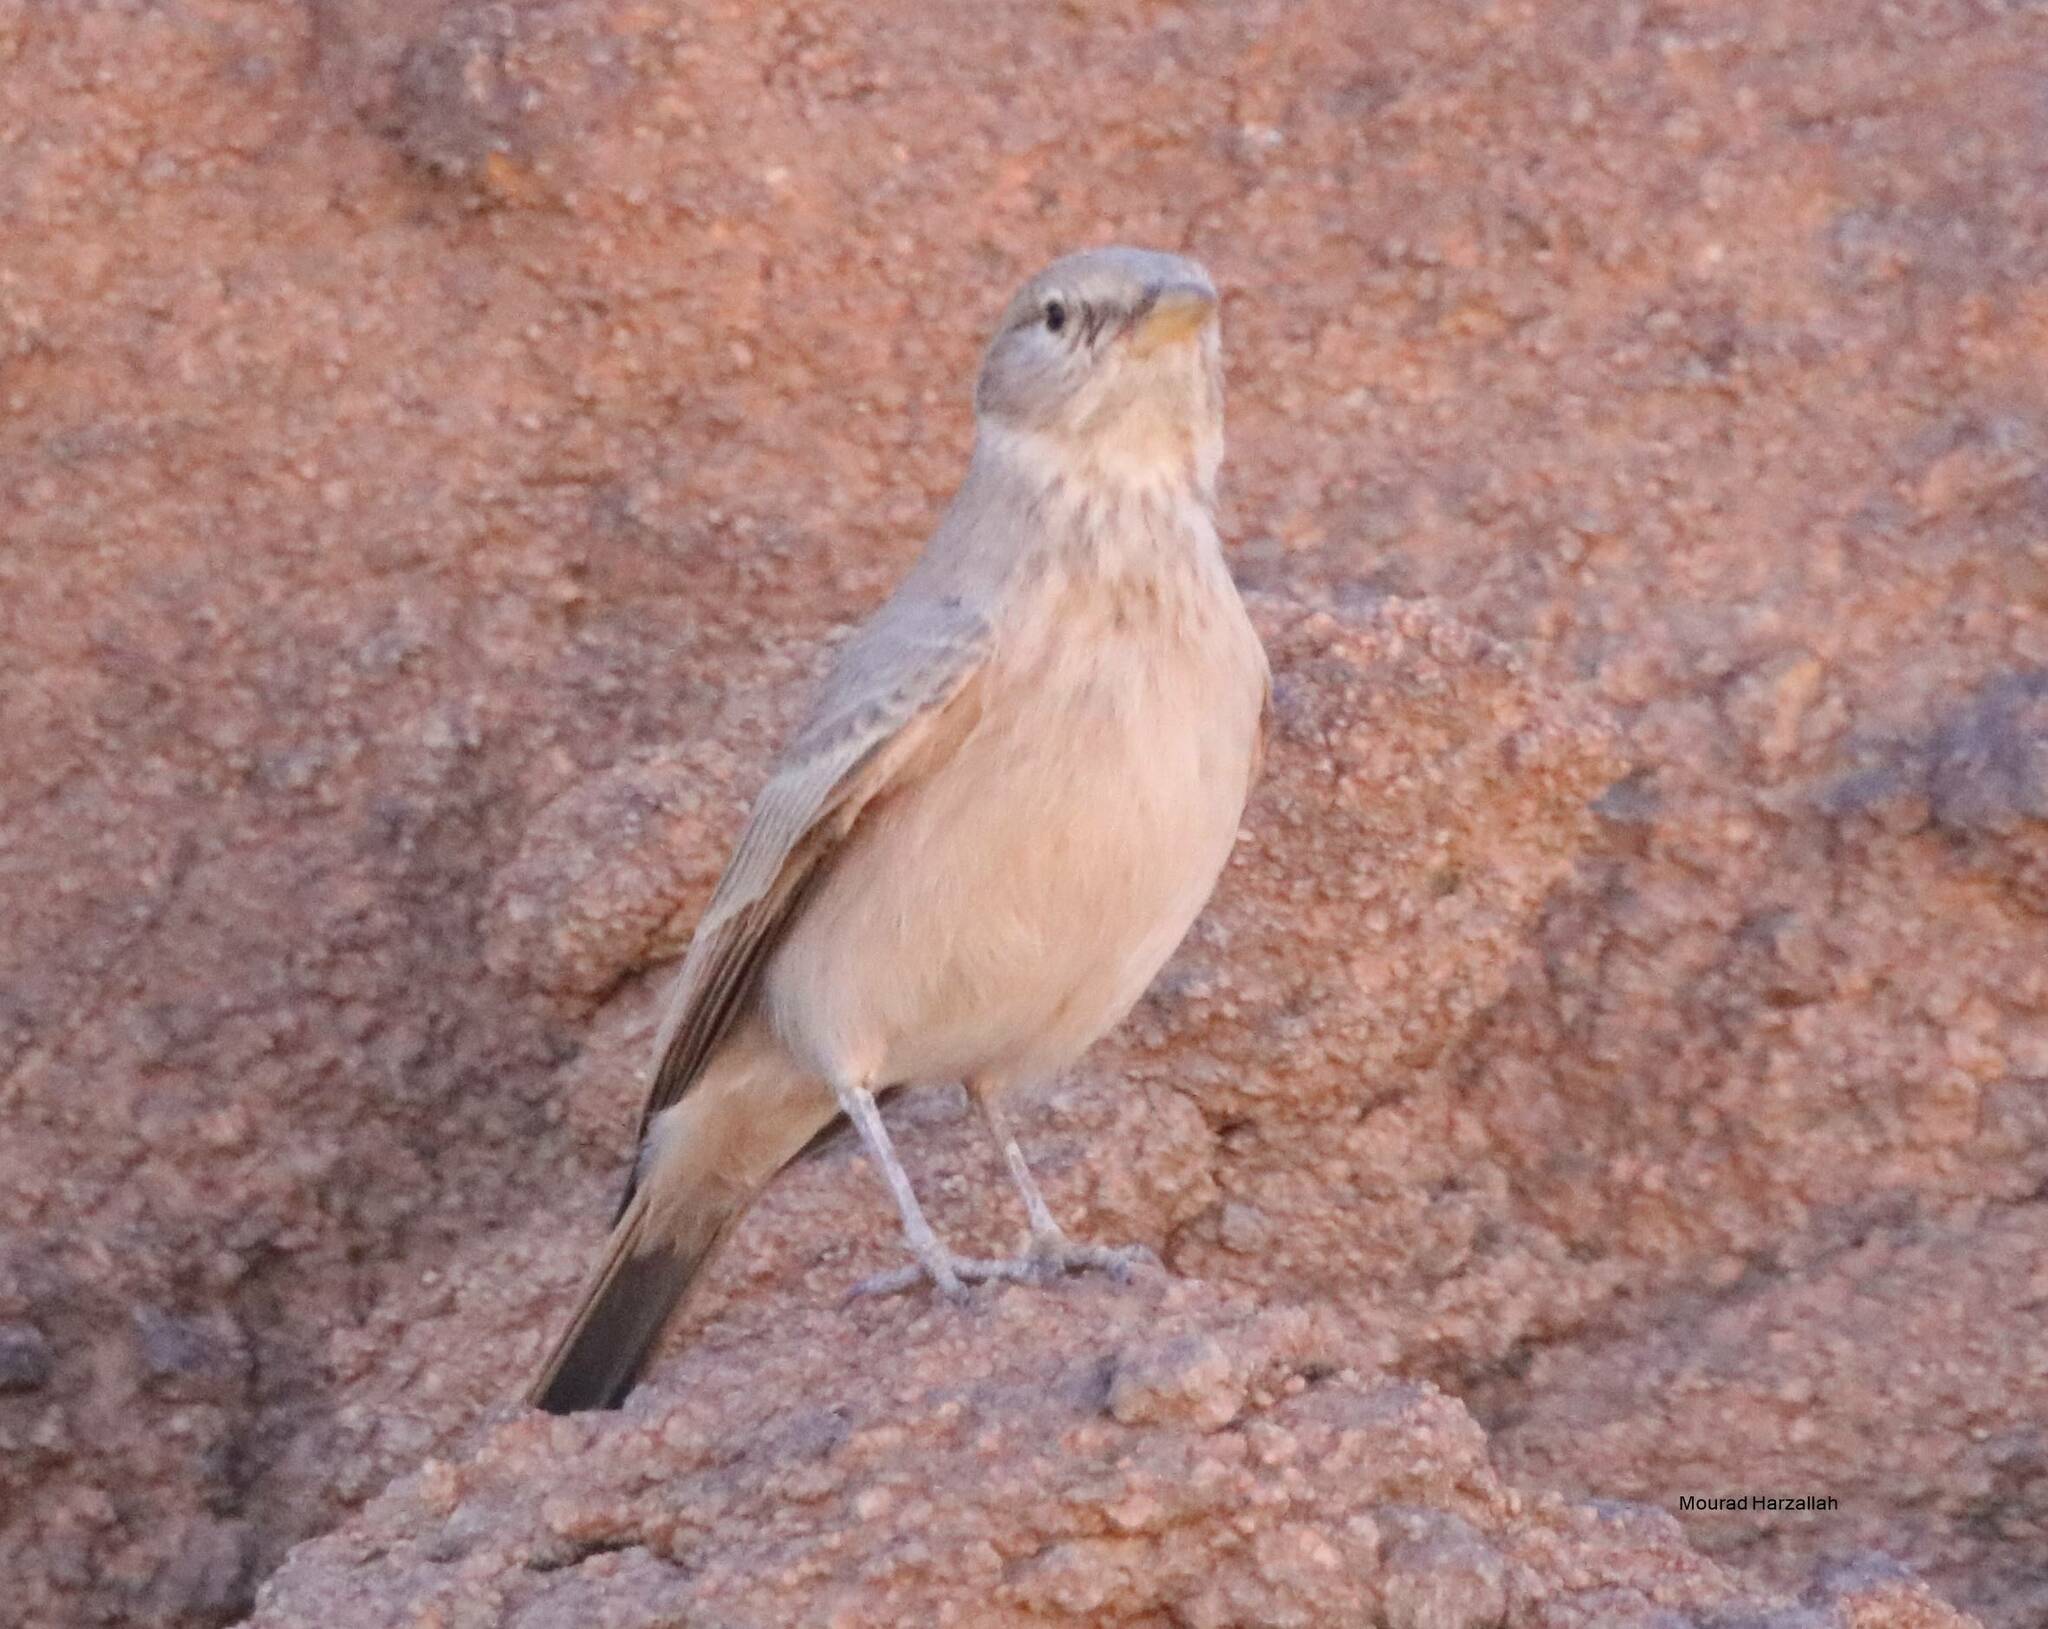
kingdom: Animalia
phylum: Chordata
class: Aves
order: Passeriformes
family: Alaudidae
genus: Ammomanes
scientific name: Ammomanes deserti
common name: Desert lark
